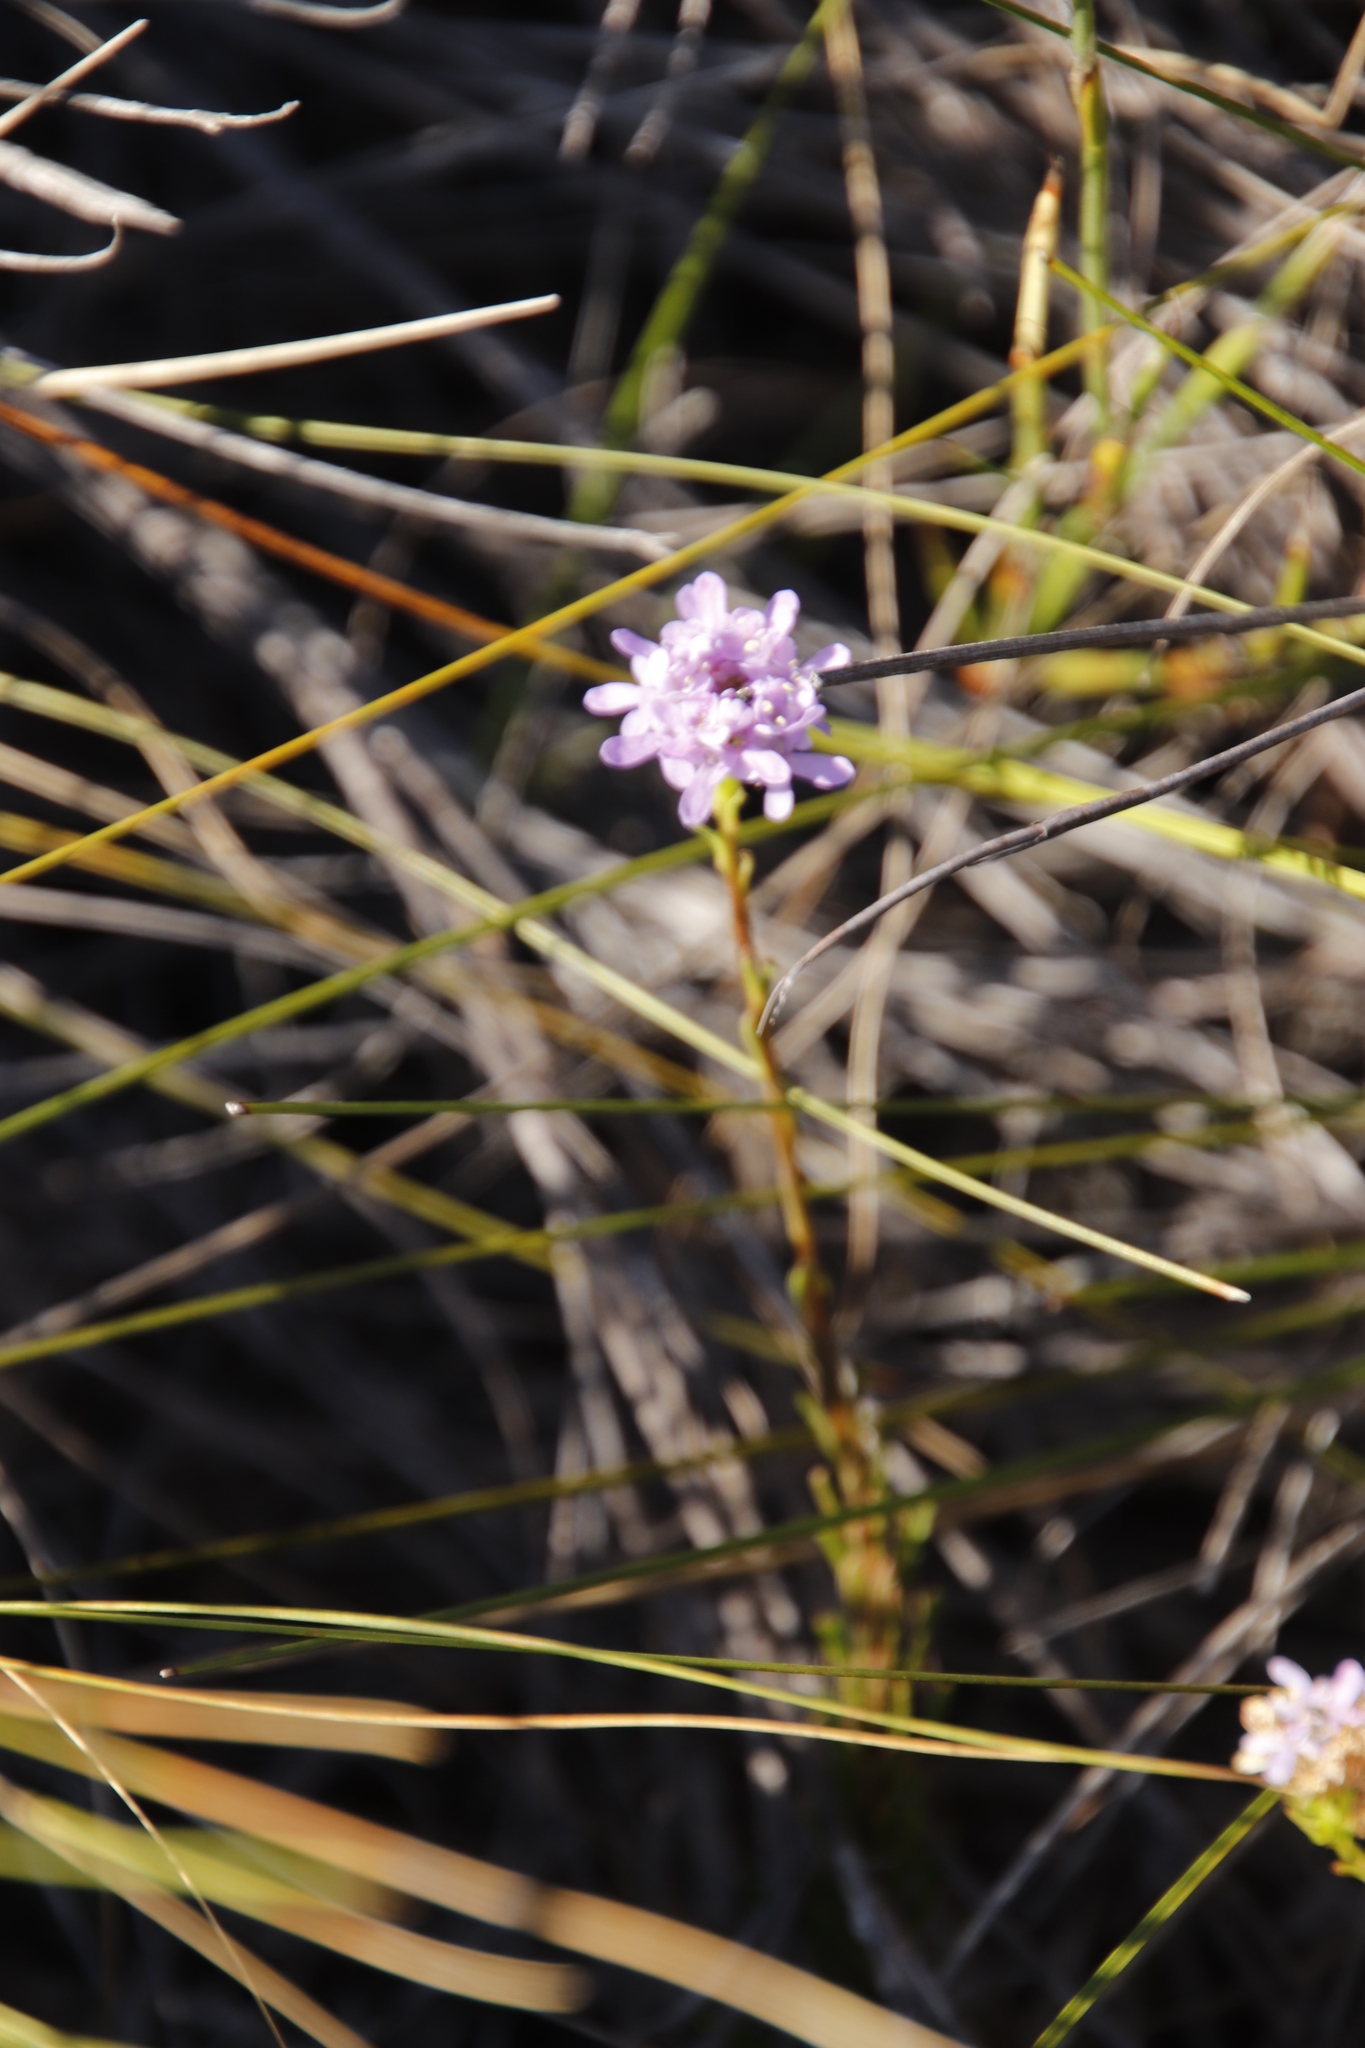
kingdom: Plantae
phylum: Tracheophyta
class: Magnoliopsida
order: Lamiales
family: Scrophulariaceae
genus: Pseudoselago
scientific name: Pseudoselago spuria
